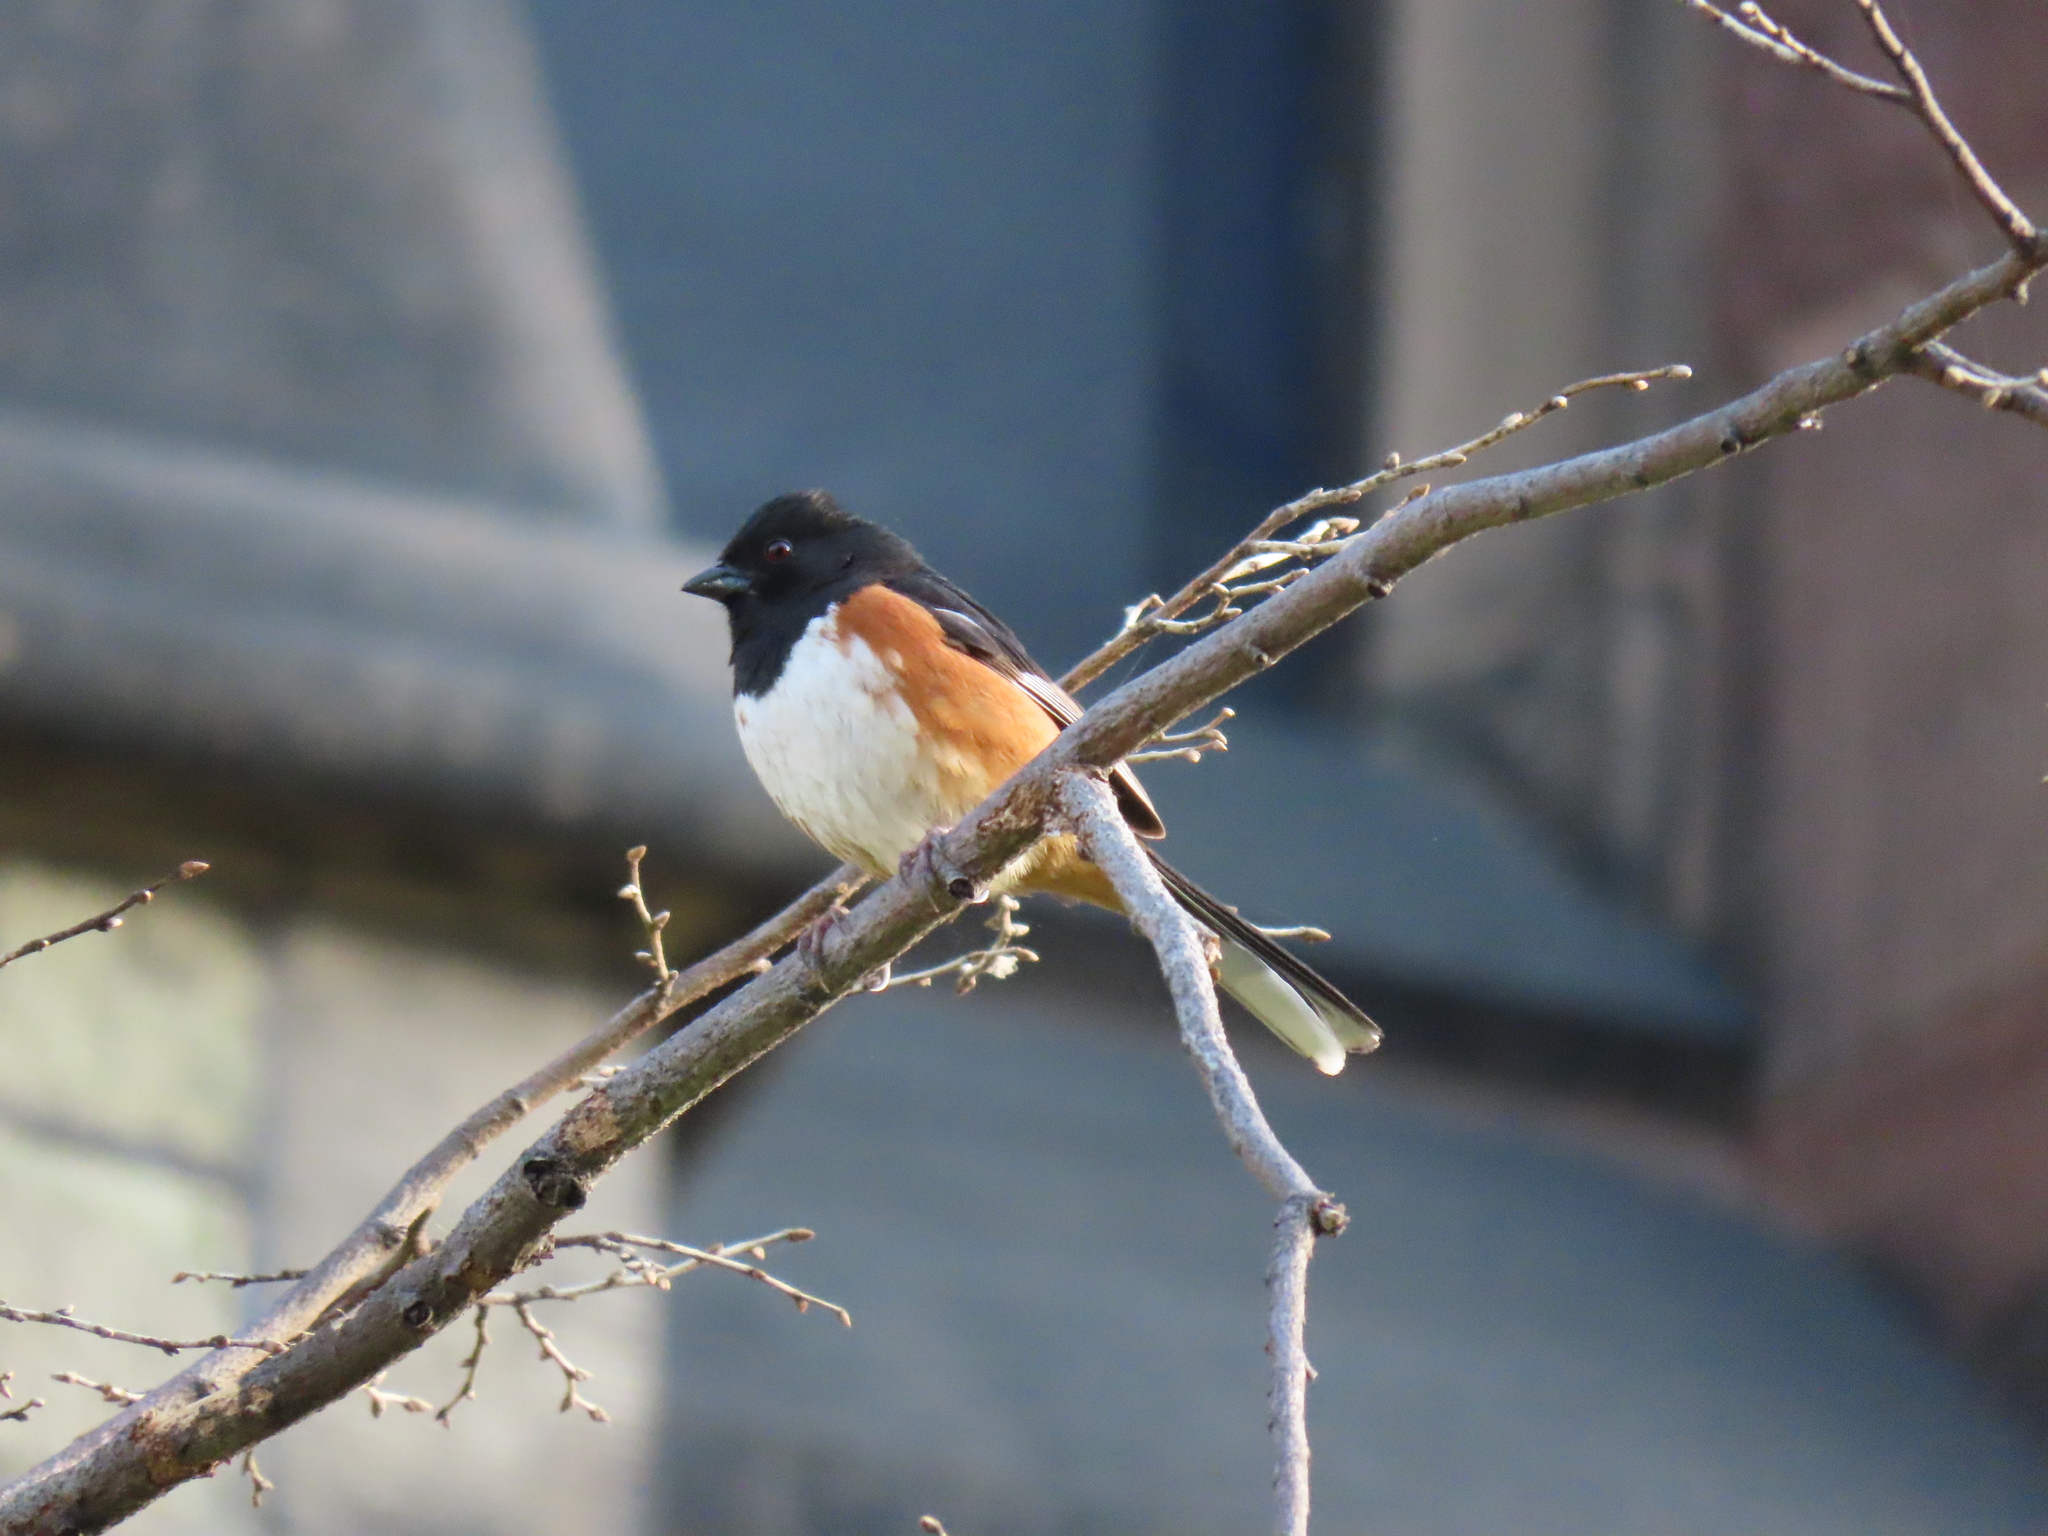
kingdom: Animalia
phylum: Chordata
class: Aves
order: Passeriformes
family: Passerellidae
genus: Pipilo
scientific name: Pipilo erythrophthalmus
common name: Eastern towhee
